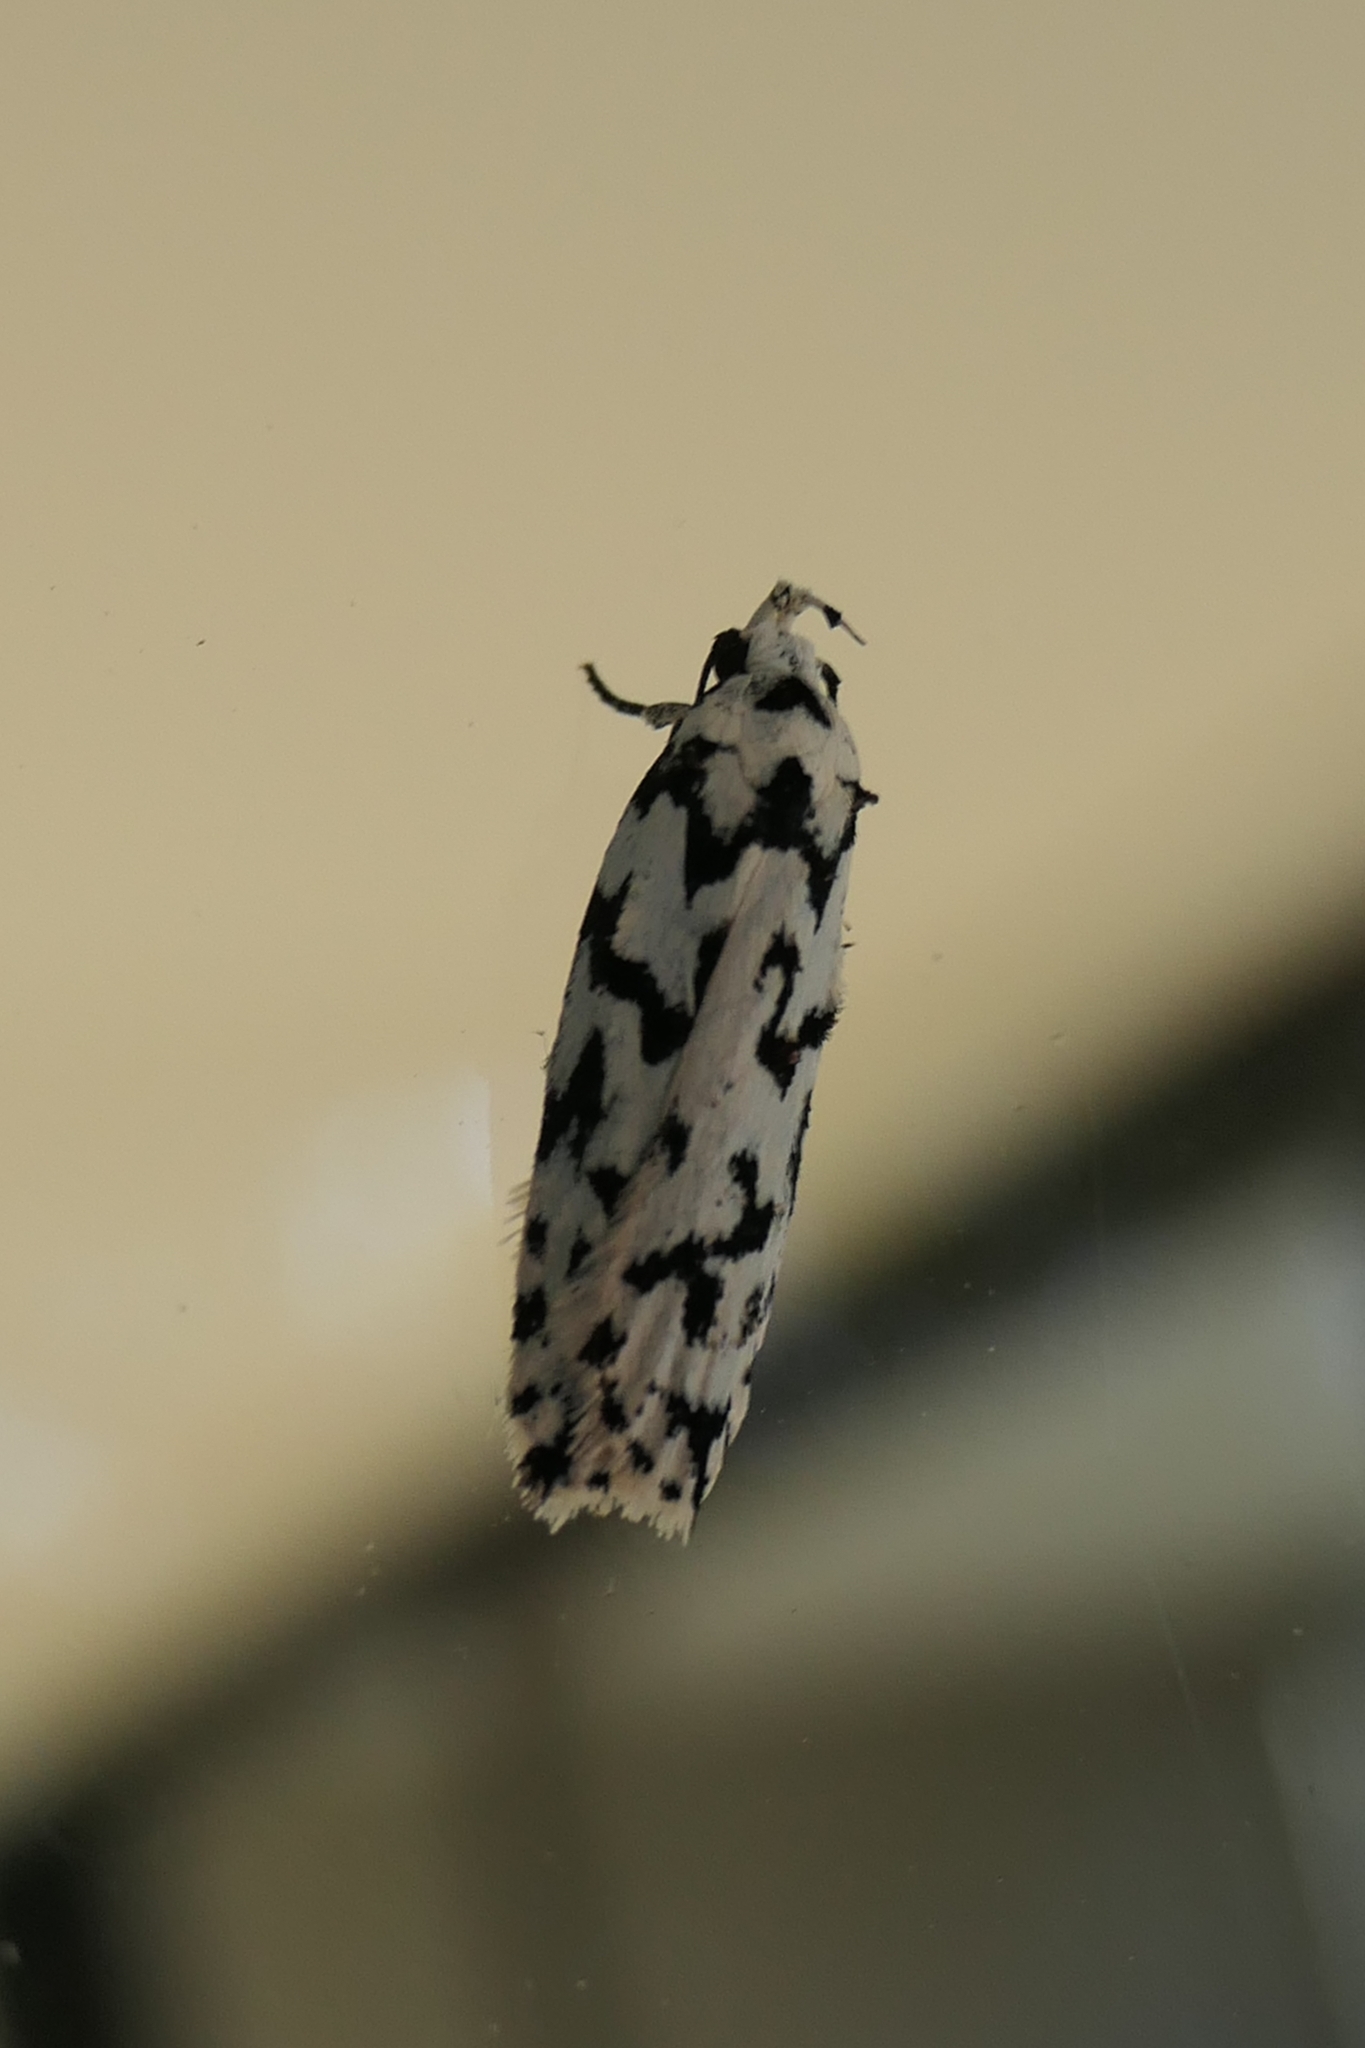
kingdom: Animalia
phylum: Arthropoda
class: Insecta
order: Lepidoptera
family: Oecophoridae
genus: Izatha
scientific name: Izatha katadiktya
